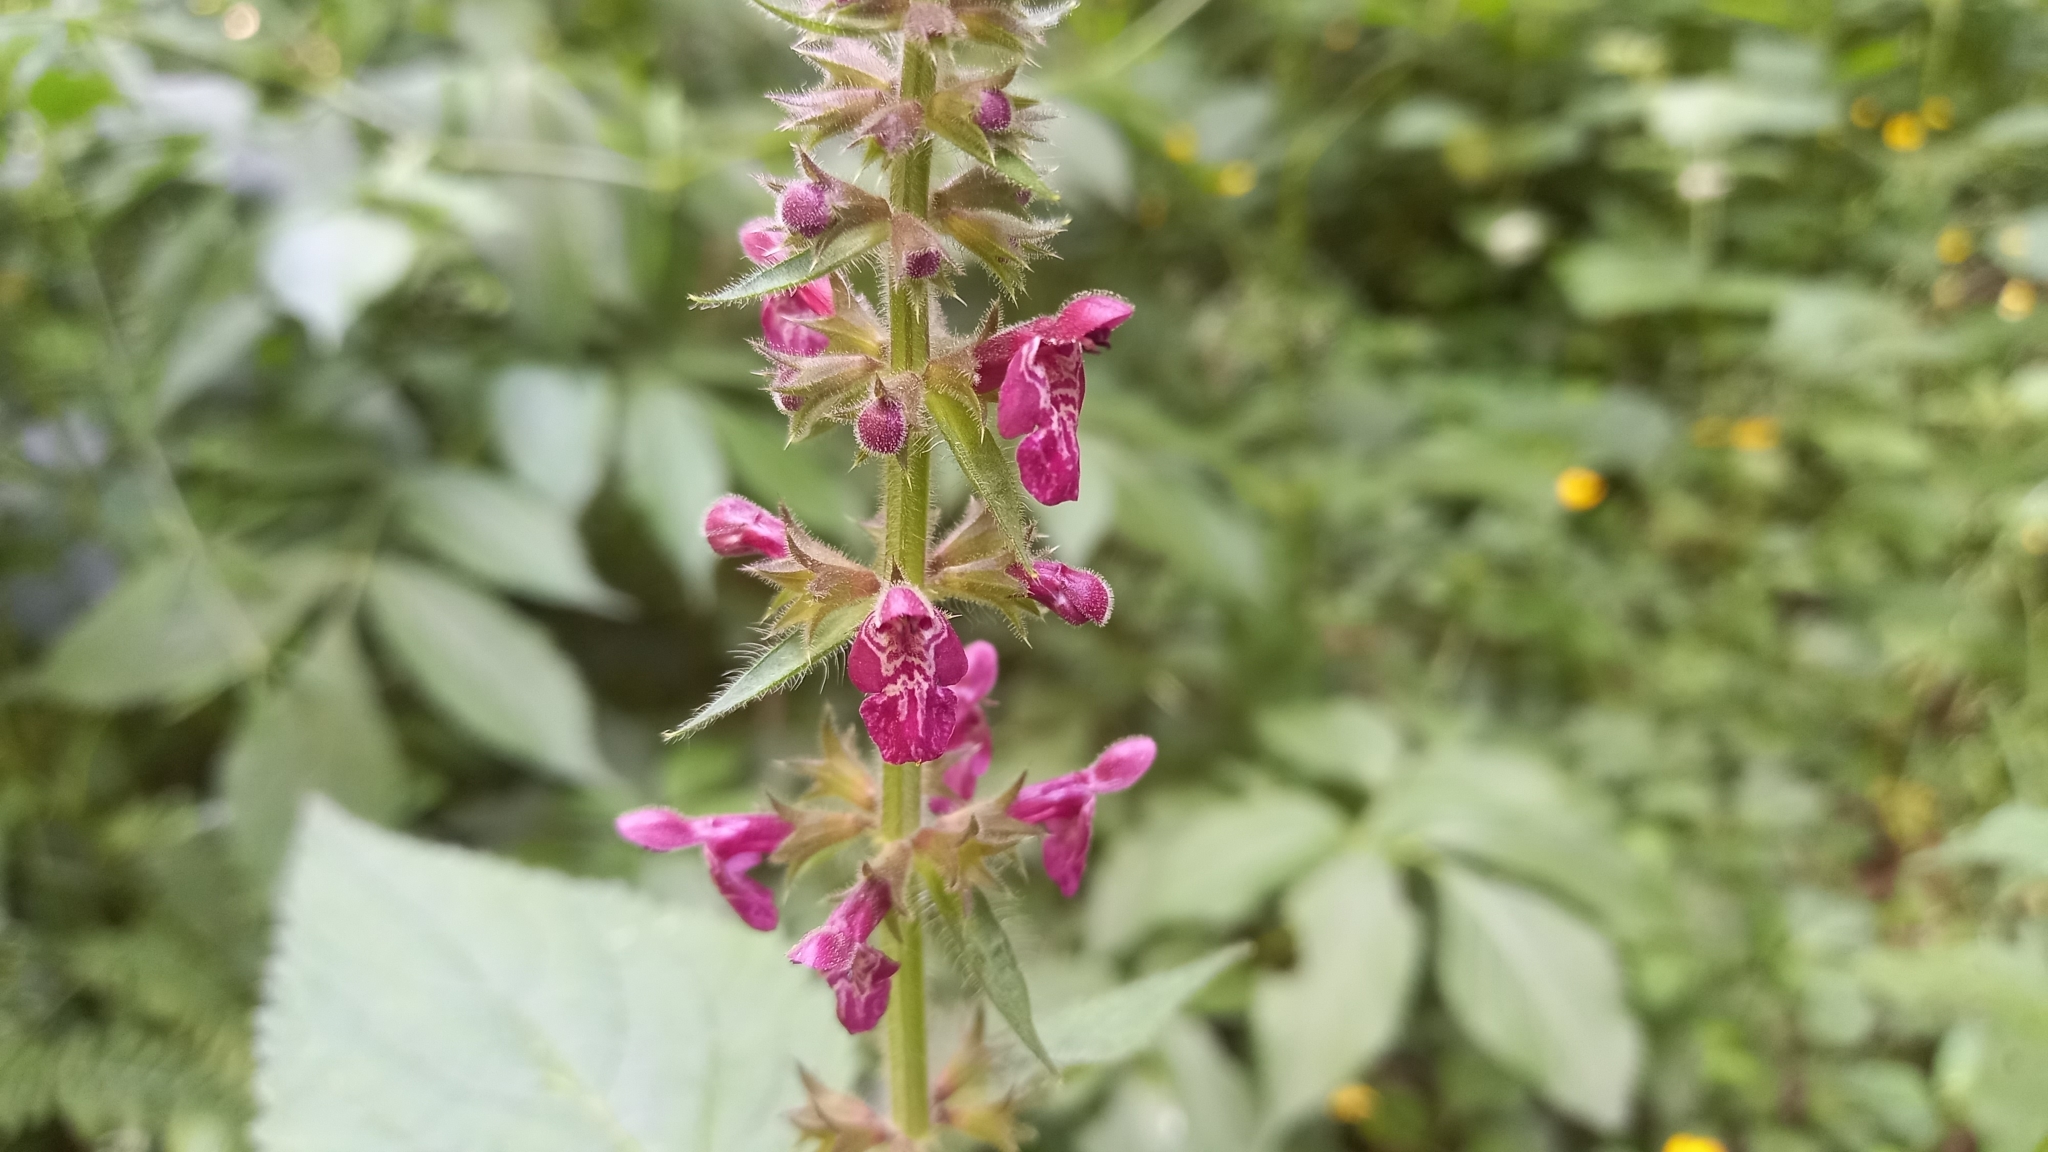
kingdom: Plantae
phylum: Tracheophyta
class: Magnoliopsida
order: Lamiales
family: Lamiaceae
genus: Stachys
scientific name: Stachys sylvatica
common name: Hedge woundwort
